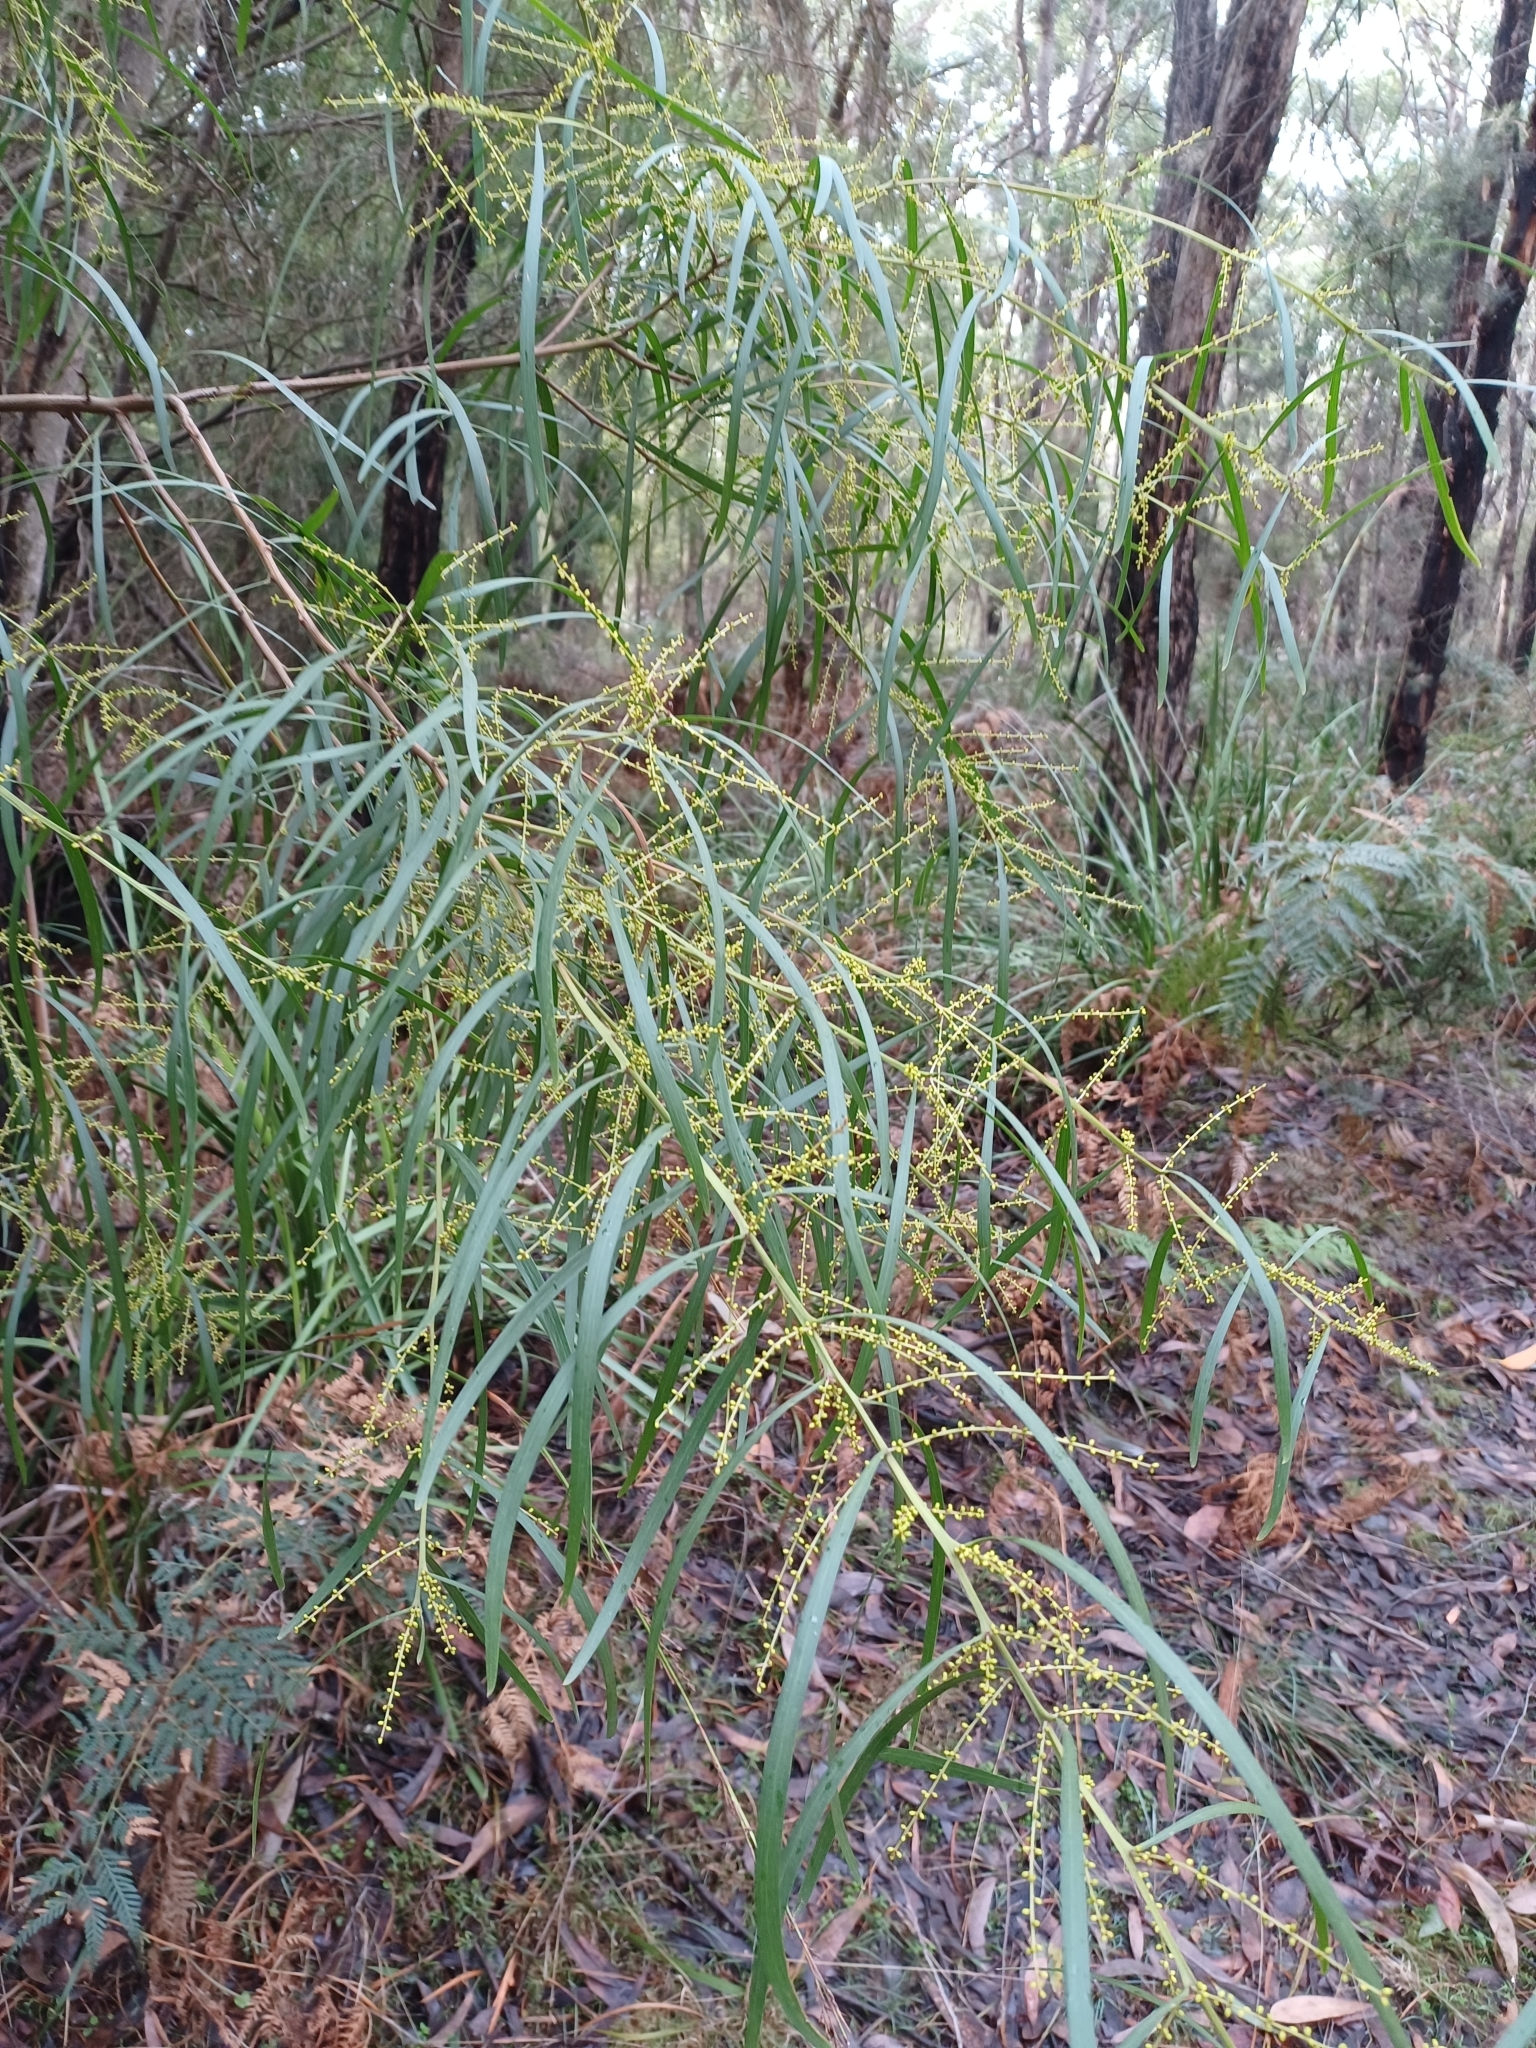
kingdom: Plantae
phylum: Tracheophyta
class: Magnoliopsida
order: Fabales
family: Fabaceae
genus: Acacia
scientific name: Acacia mucronata
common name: Variable sallow wattle
